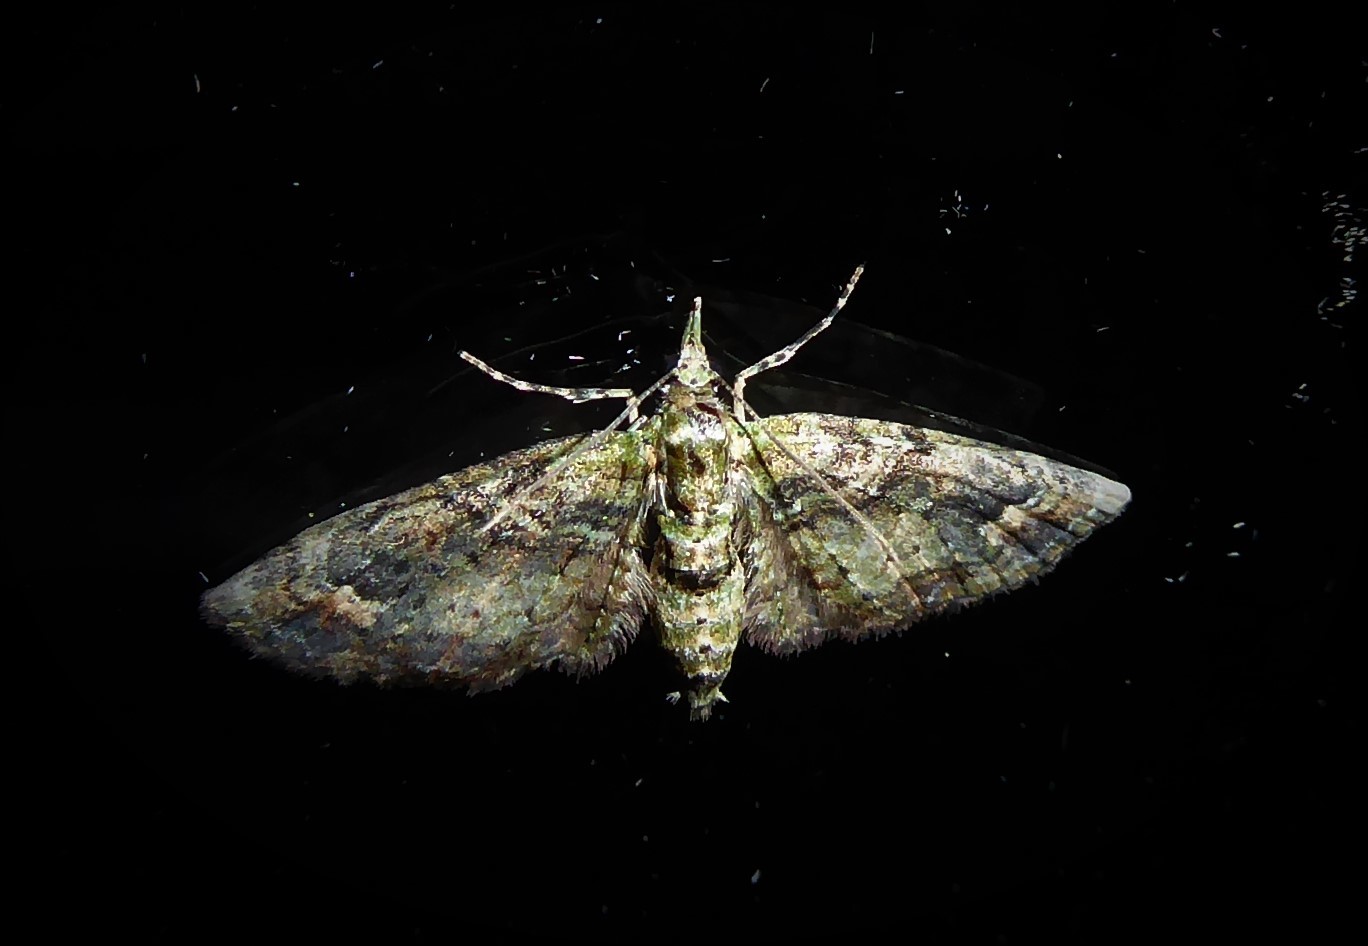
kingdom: Animalia
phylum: Arthropoda
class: Insecta
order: Lepidoptera
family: Geometridae
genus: Idaea
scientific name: Idaea mutanda
